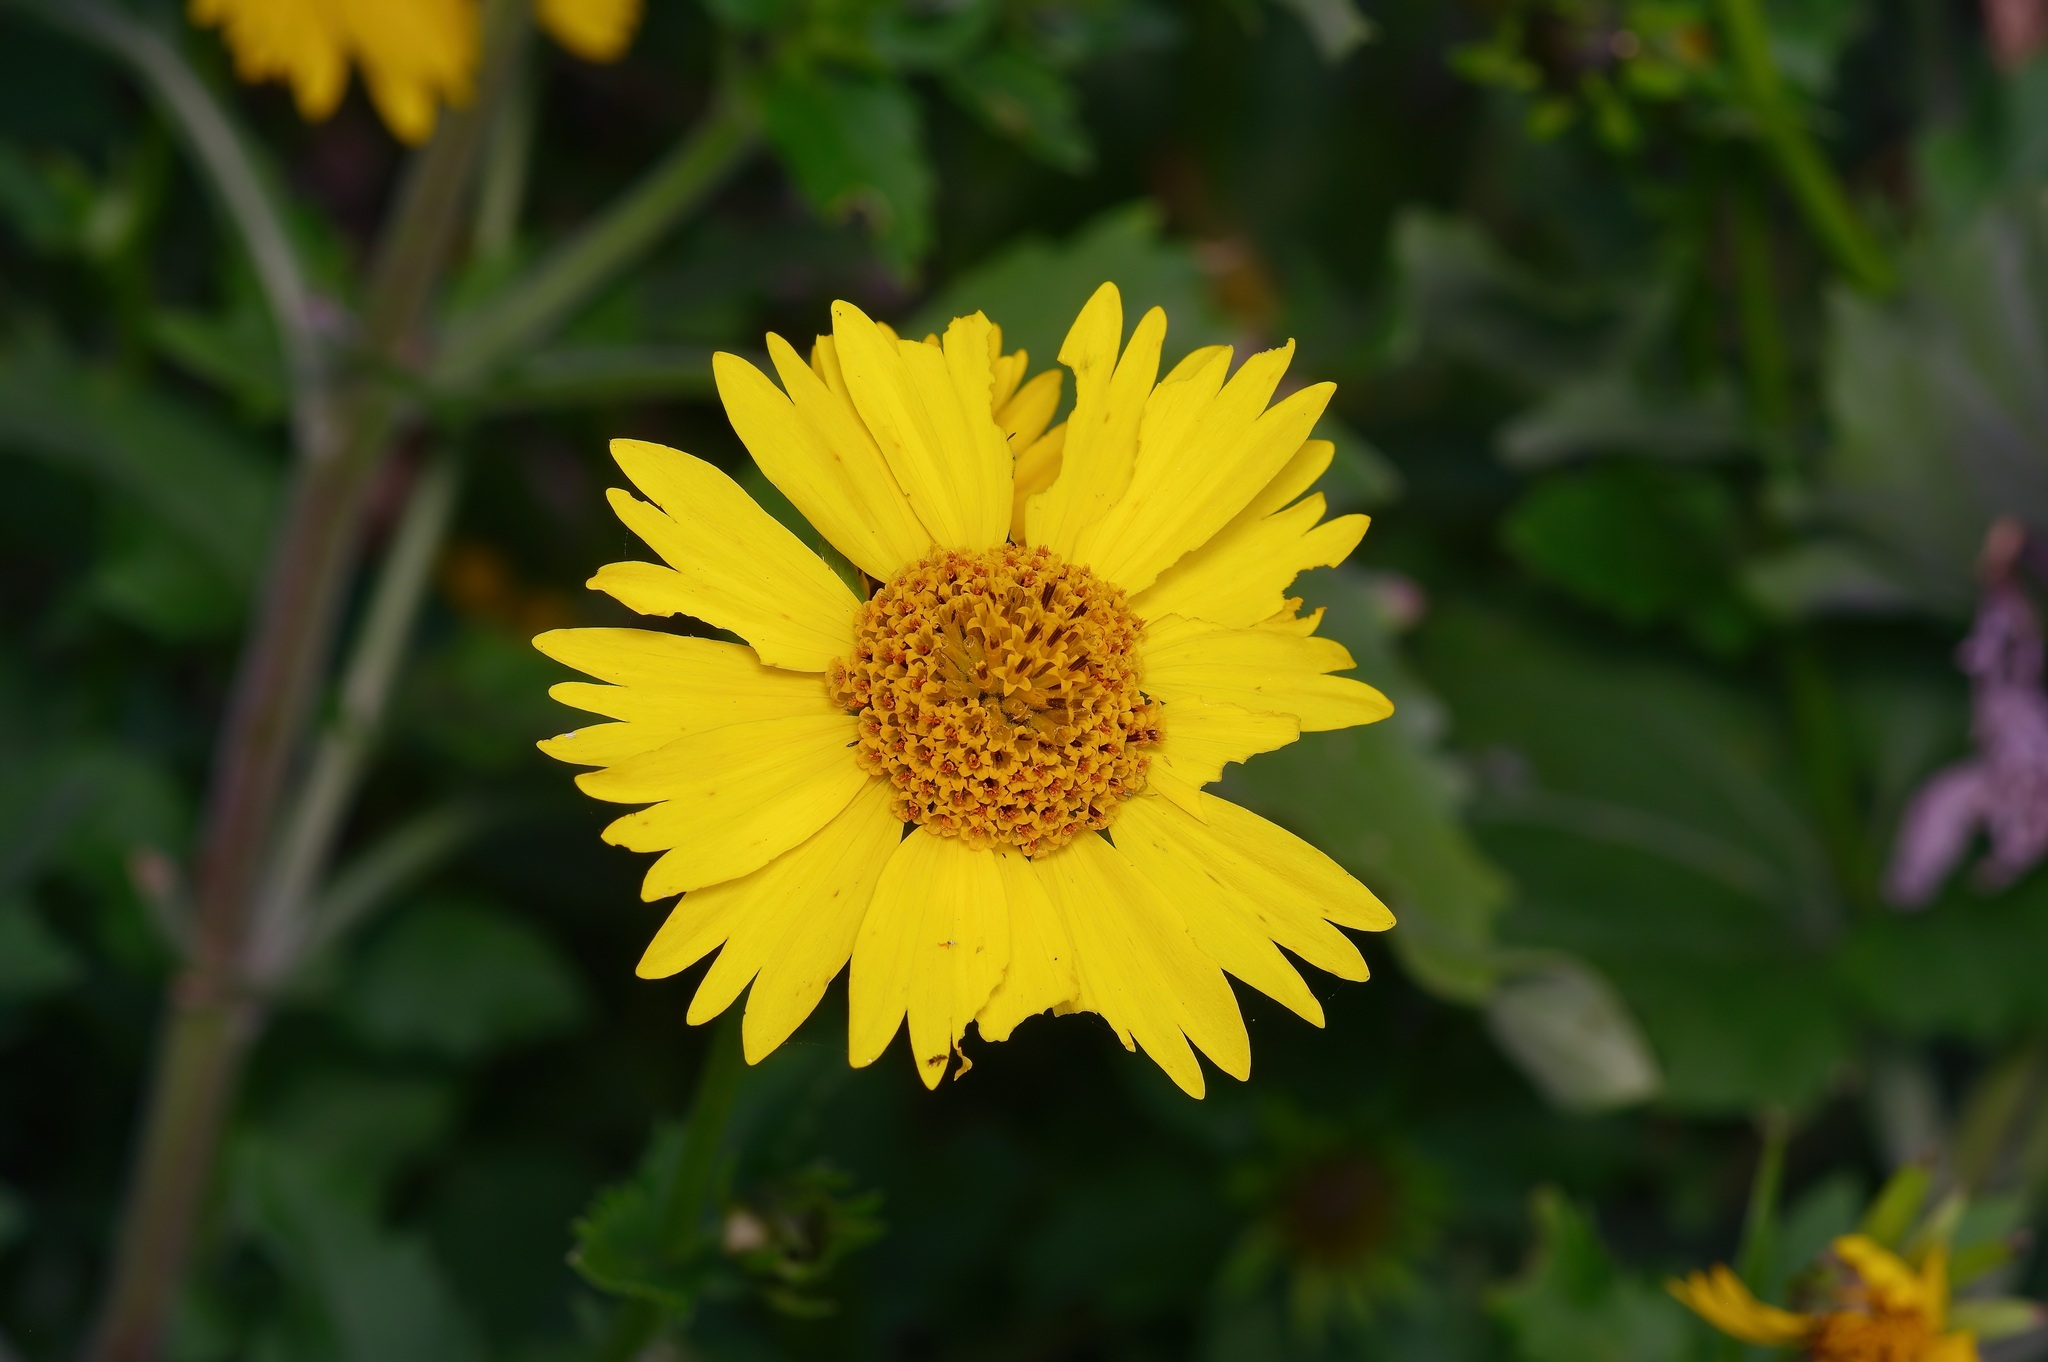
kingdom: Plantae
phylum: Tracheophyta
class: Magnoliopsida
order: Asterales
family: Asteraceae
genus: Verbesina
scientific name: Verbesina encelioides
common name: Golden crownbeard
